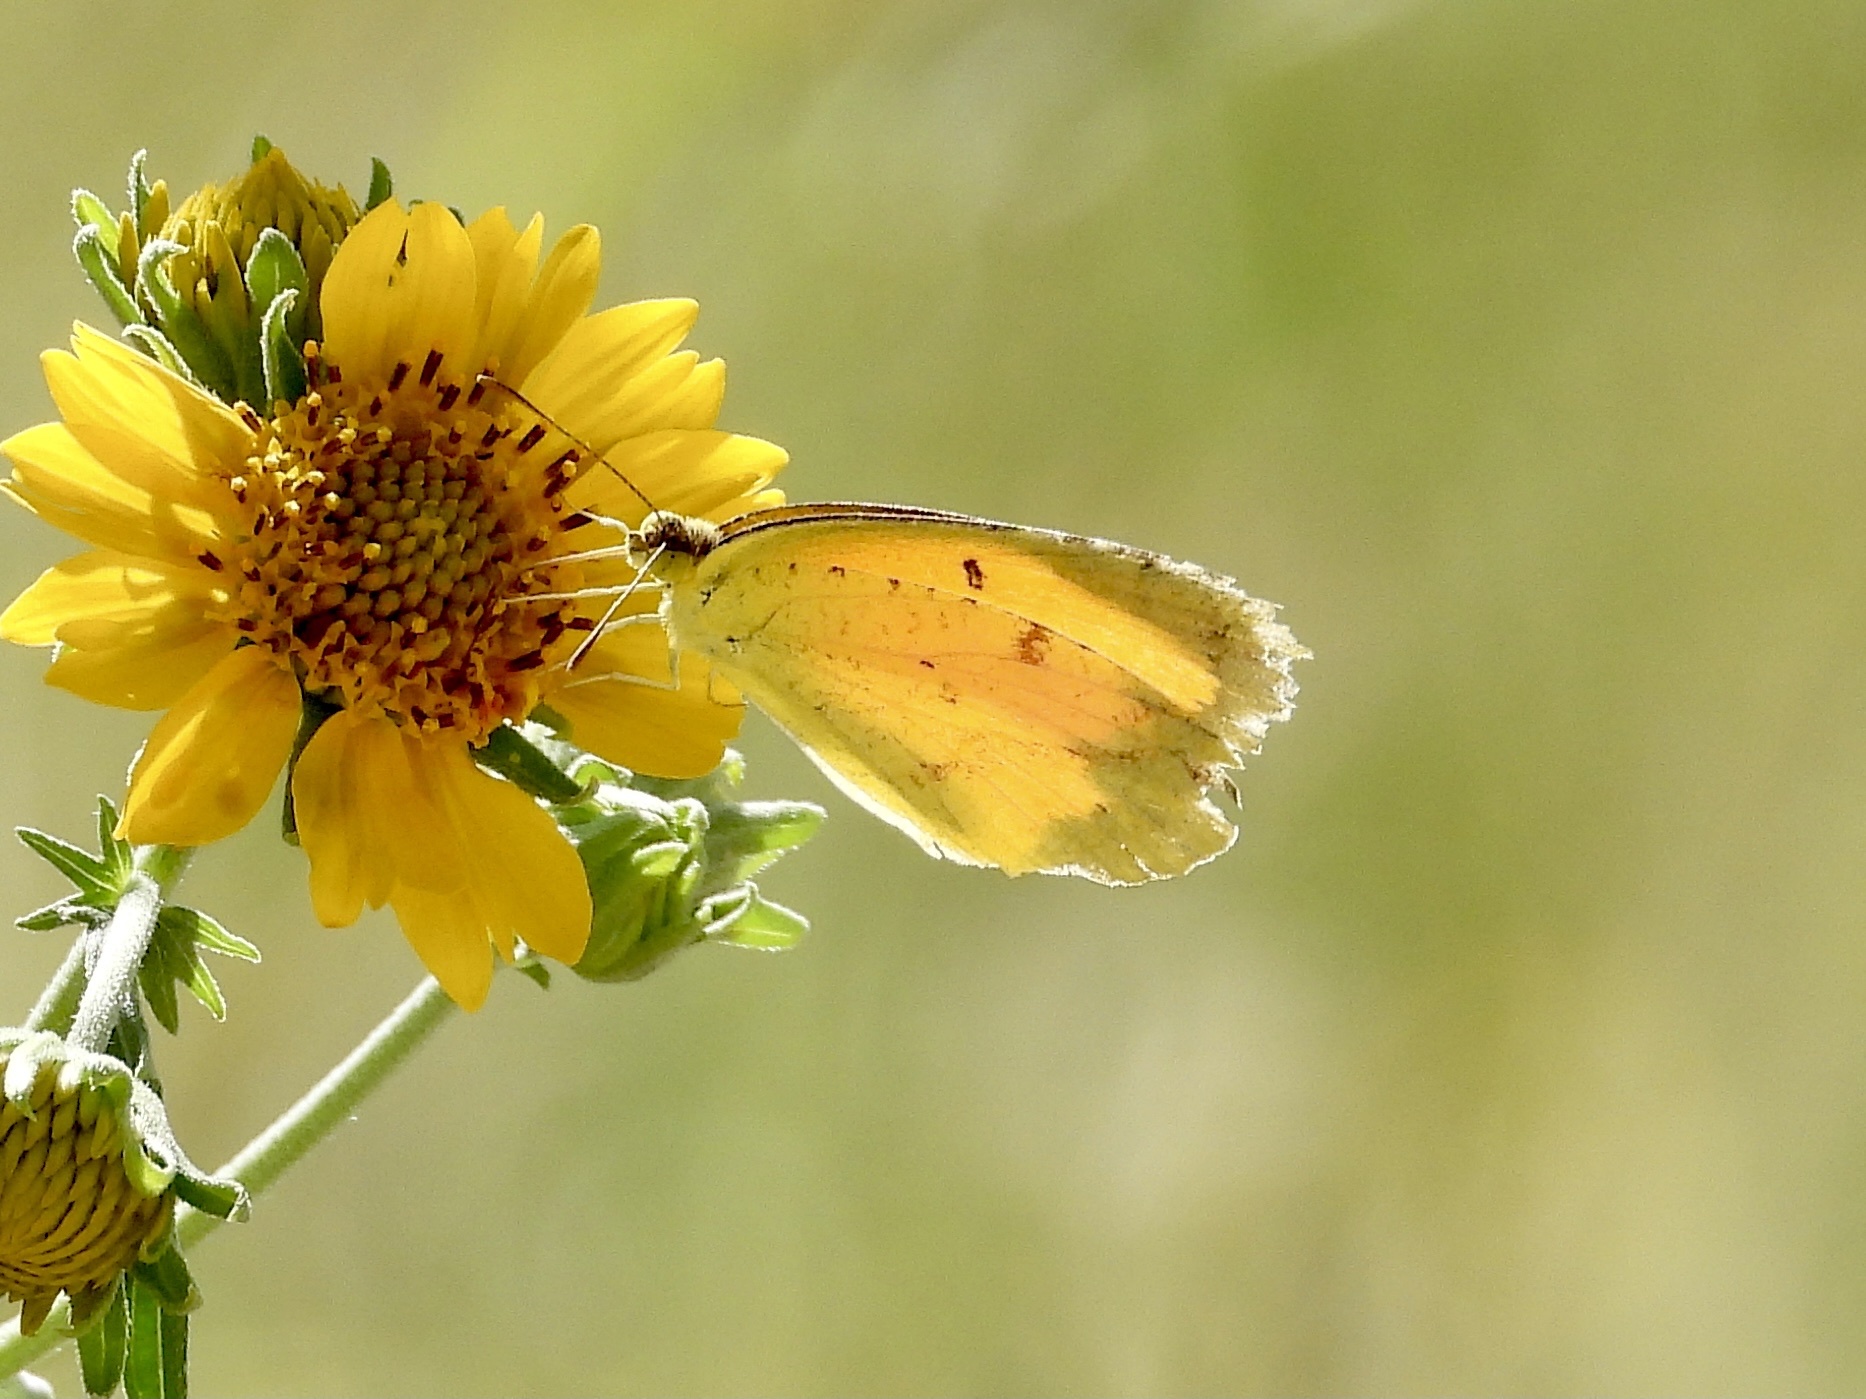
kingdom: Animalia
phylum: Arthropoda
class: Insecta
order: Lepidoptera
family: Pieridae
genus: Abaeis
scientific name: Abaeis nicippe
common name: Sleepy orange
